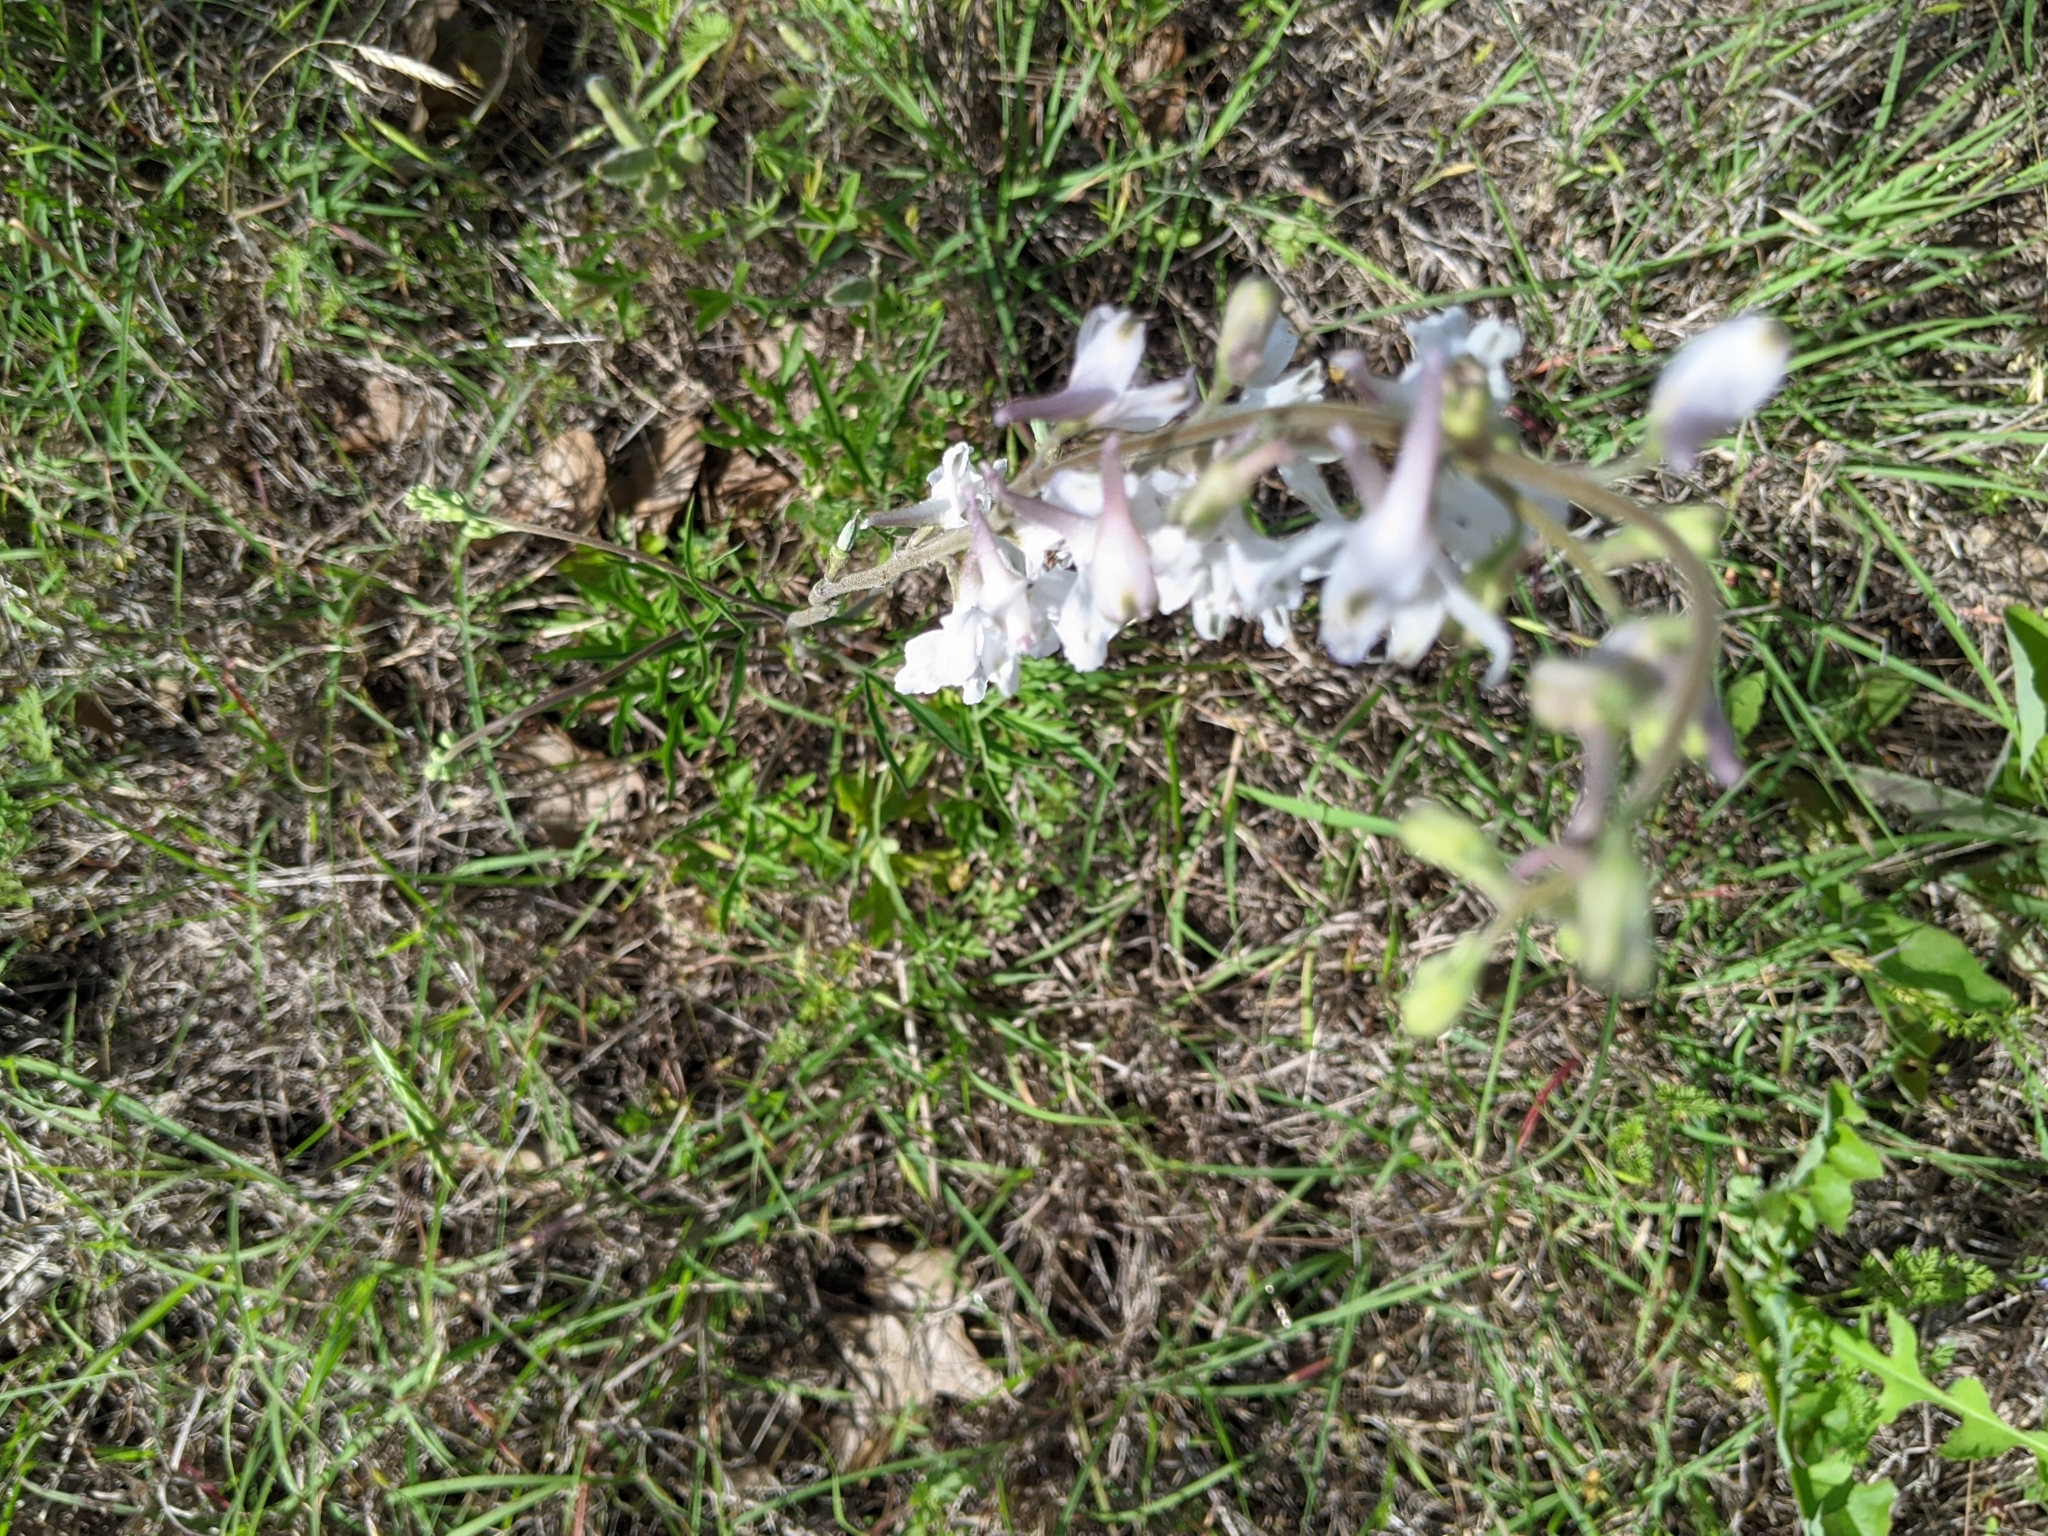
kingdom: Plantae
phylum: Tracheophyta
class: Magnoliopsida
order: Ranunculales
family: Ranunculaceae
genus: Delphinium
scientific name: Delphinium carolinianum
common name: Carolina larkspur
